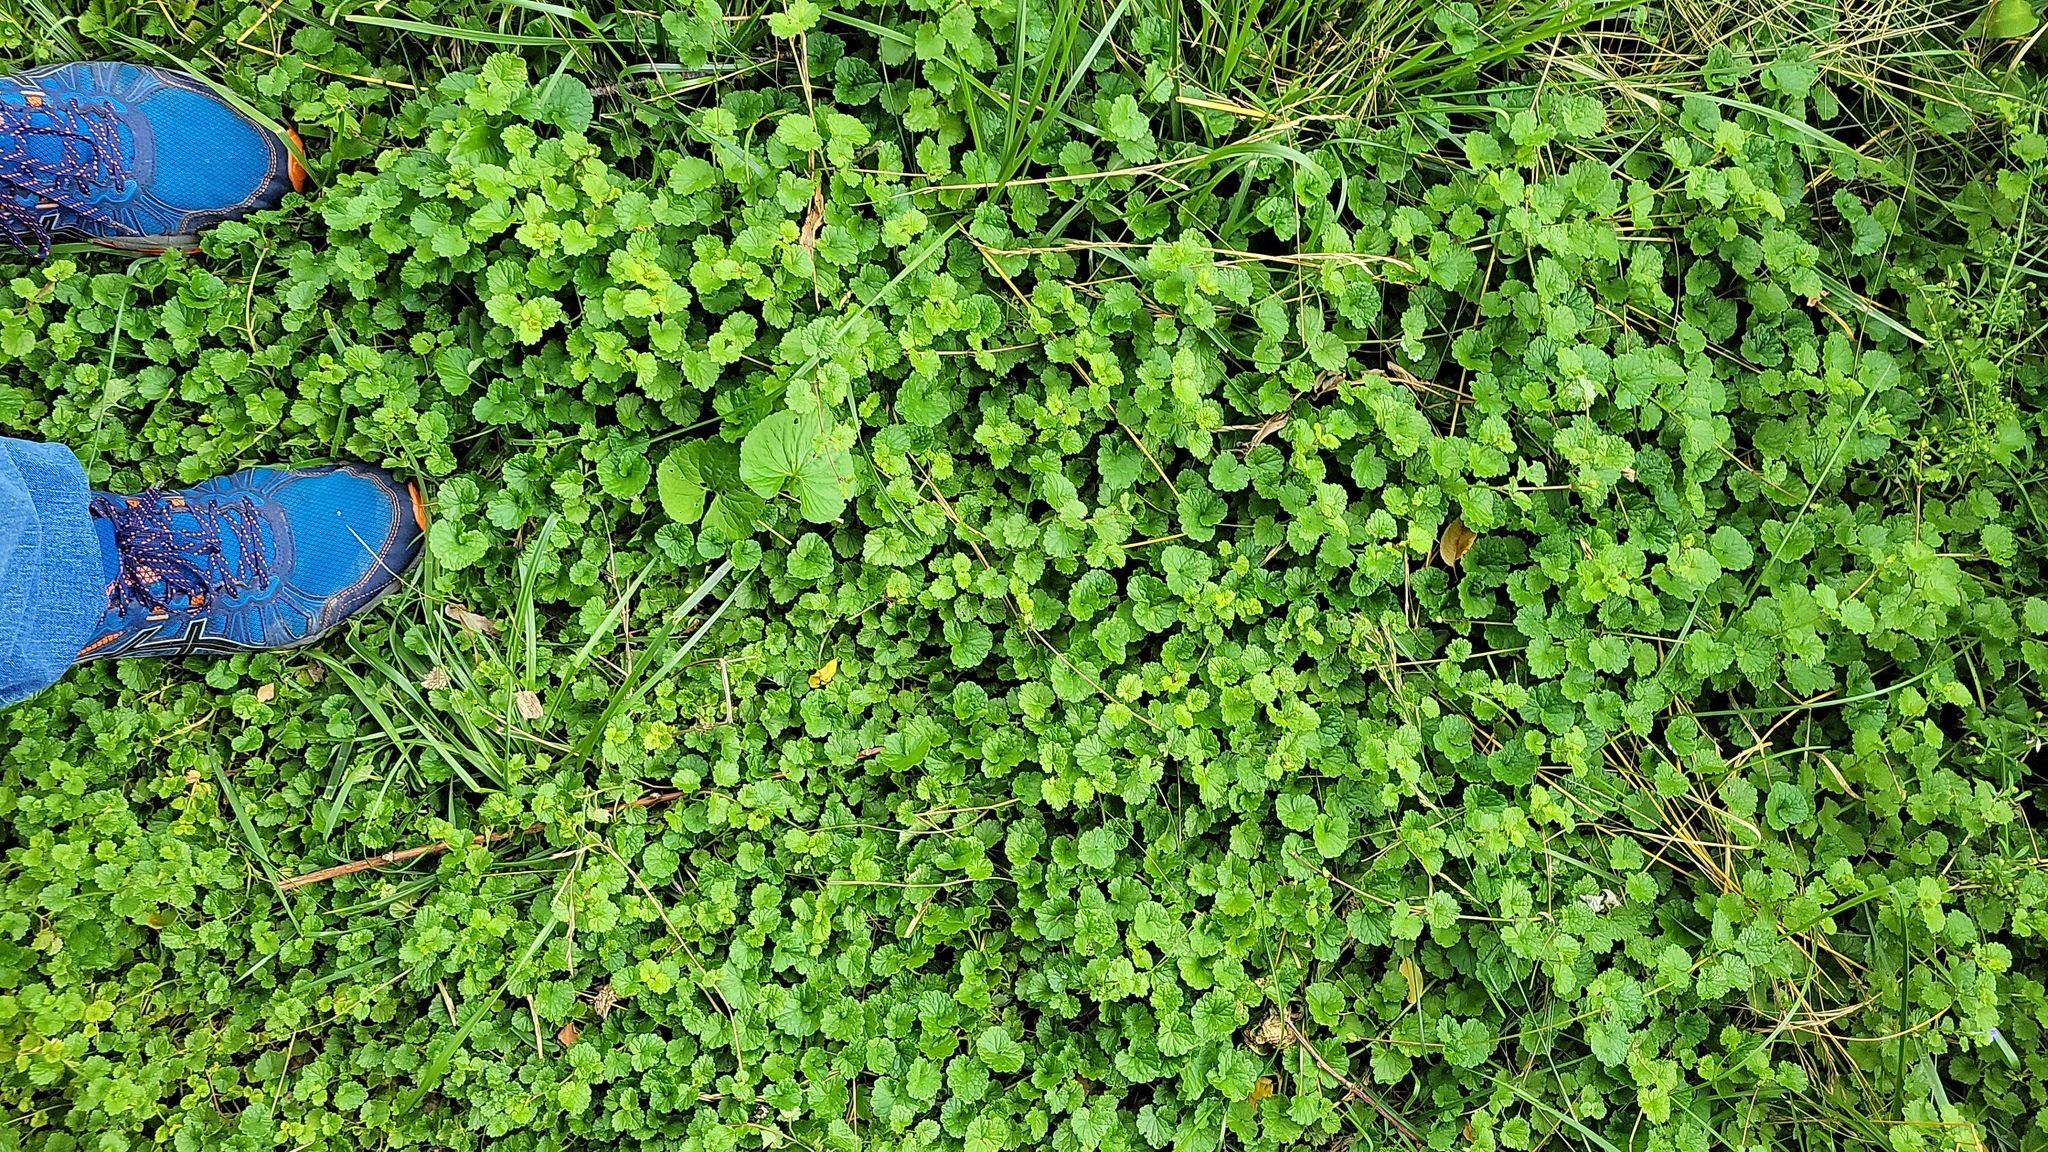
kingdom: Plantae
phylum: Tracheophyta
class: Magnoliopsida
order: Lamiales
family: Lamiaceae
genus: Glechoma
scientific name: Glechoma hederacea
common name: Ground ivy
